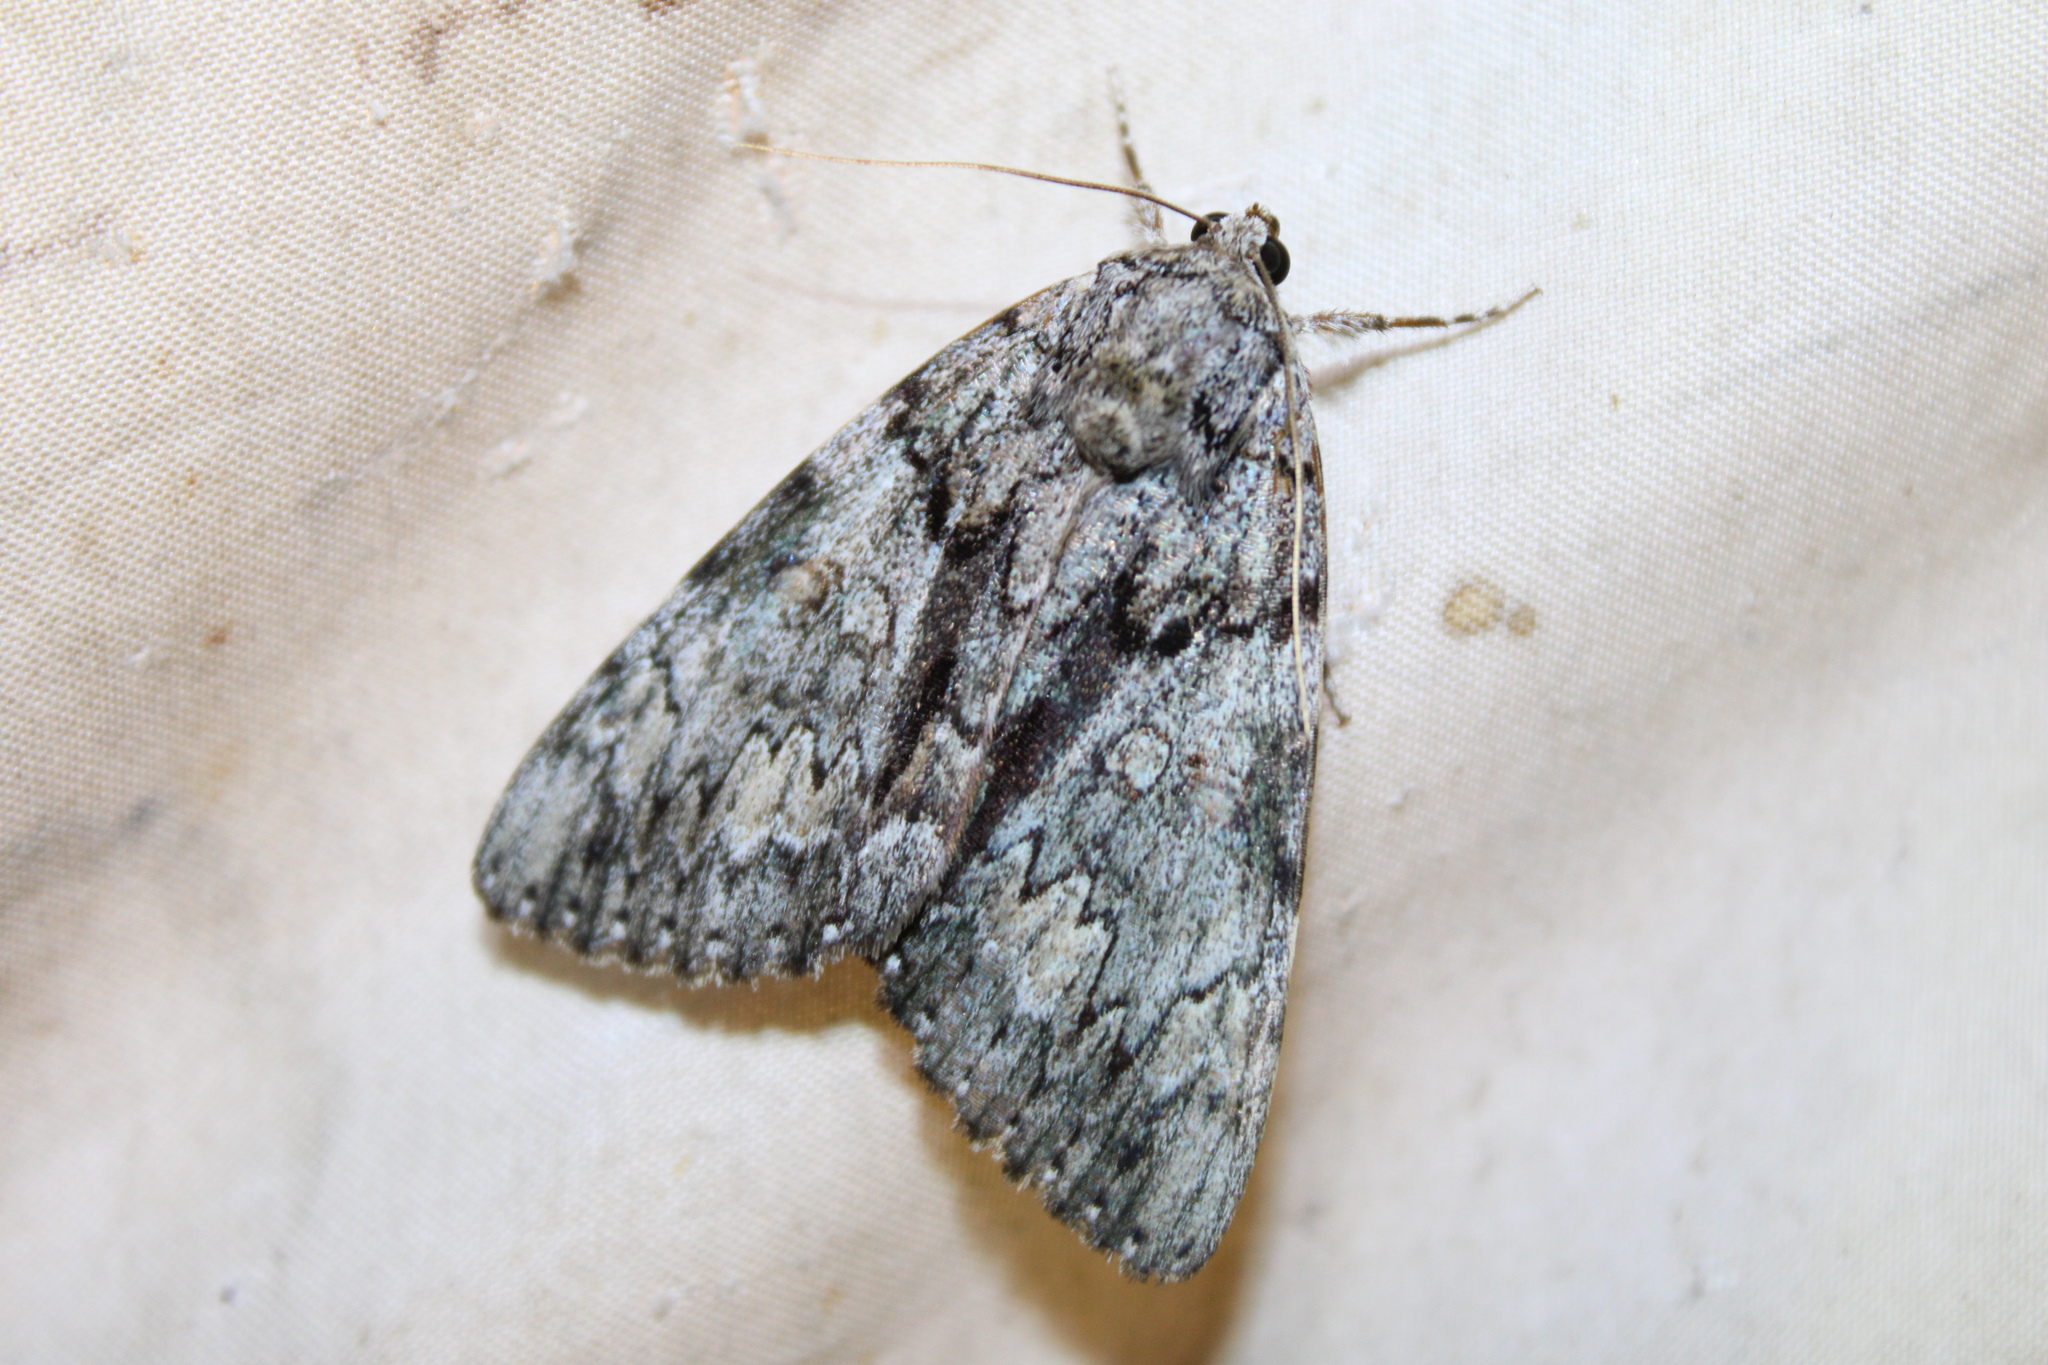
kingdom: Animalia
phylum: Arthropoda
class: Insecta
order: Lepidoptera
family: Erebidae
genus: Catocala
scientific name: Catocala palaeogama
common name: Oldwife underwing
